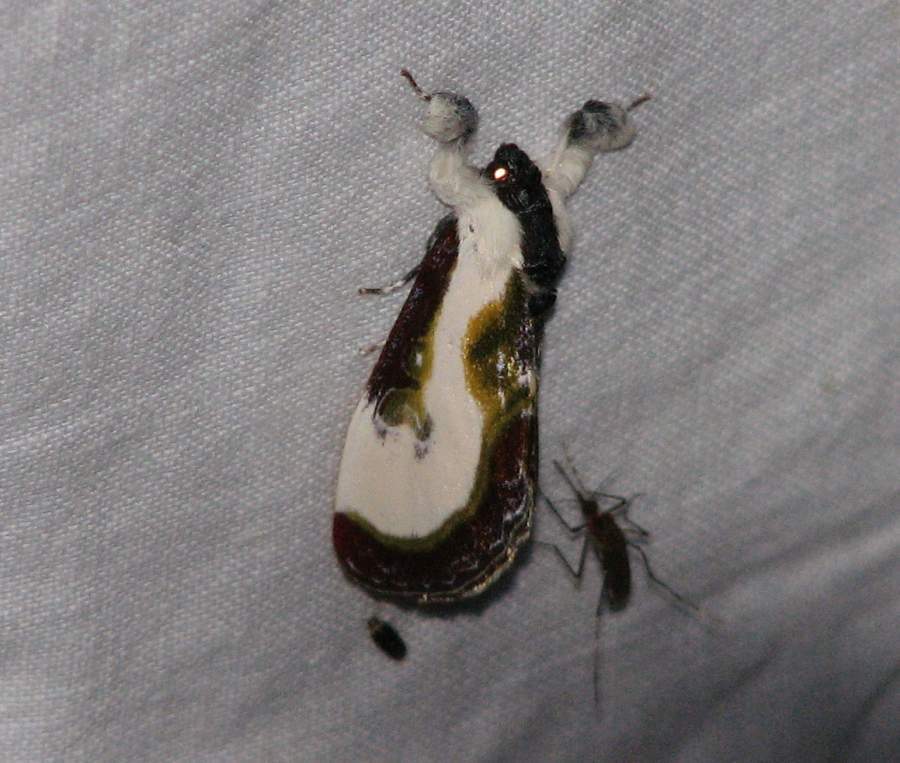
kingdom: Animalia
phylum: Arthropoda
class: Insecta
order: Lepidoptera
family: Noctuidae
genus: Eudryas
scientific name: Eudryas grata
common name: Beautiful wood-nymph
